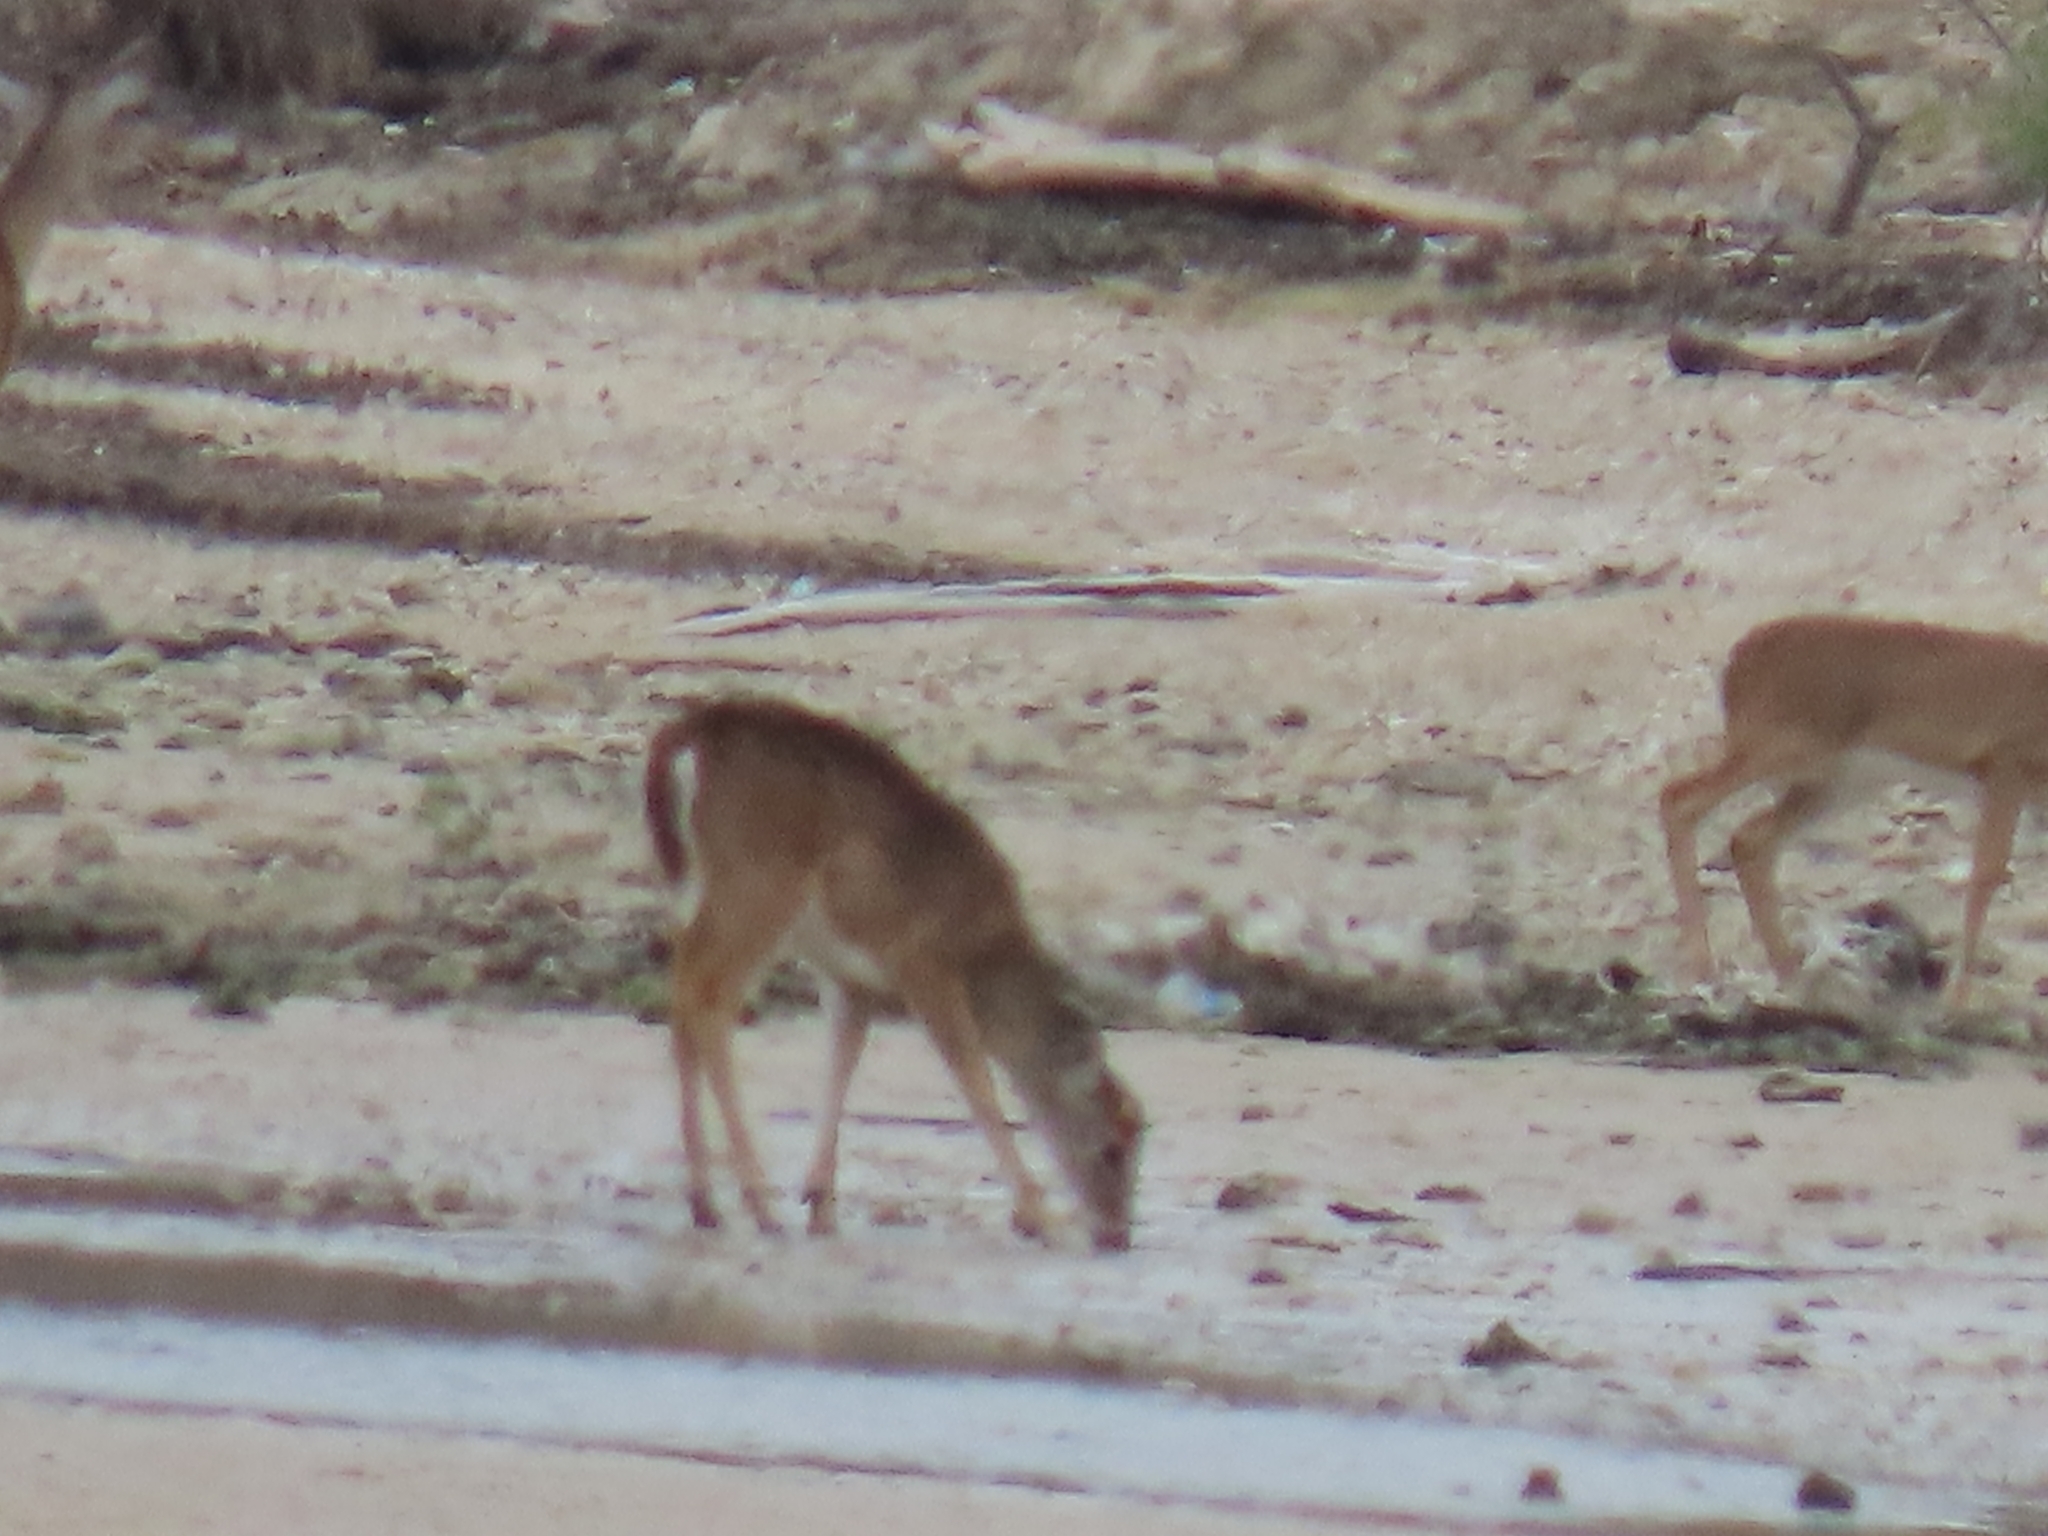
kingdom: Animalia
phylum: Chordata
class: Mammalia
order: Artiodactyla
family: Cervidae
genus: Odocoileus
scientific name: Odocoileus virginianus
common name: White-tailed deer
